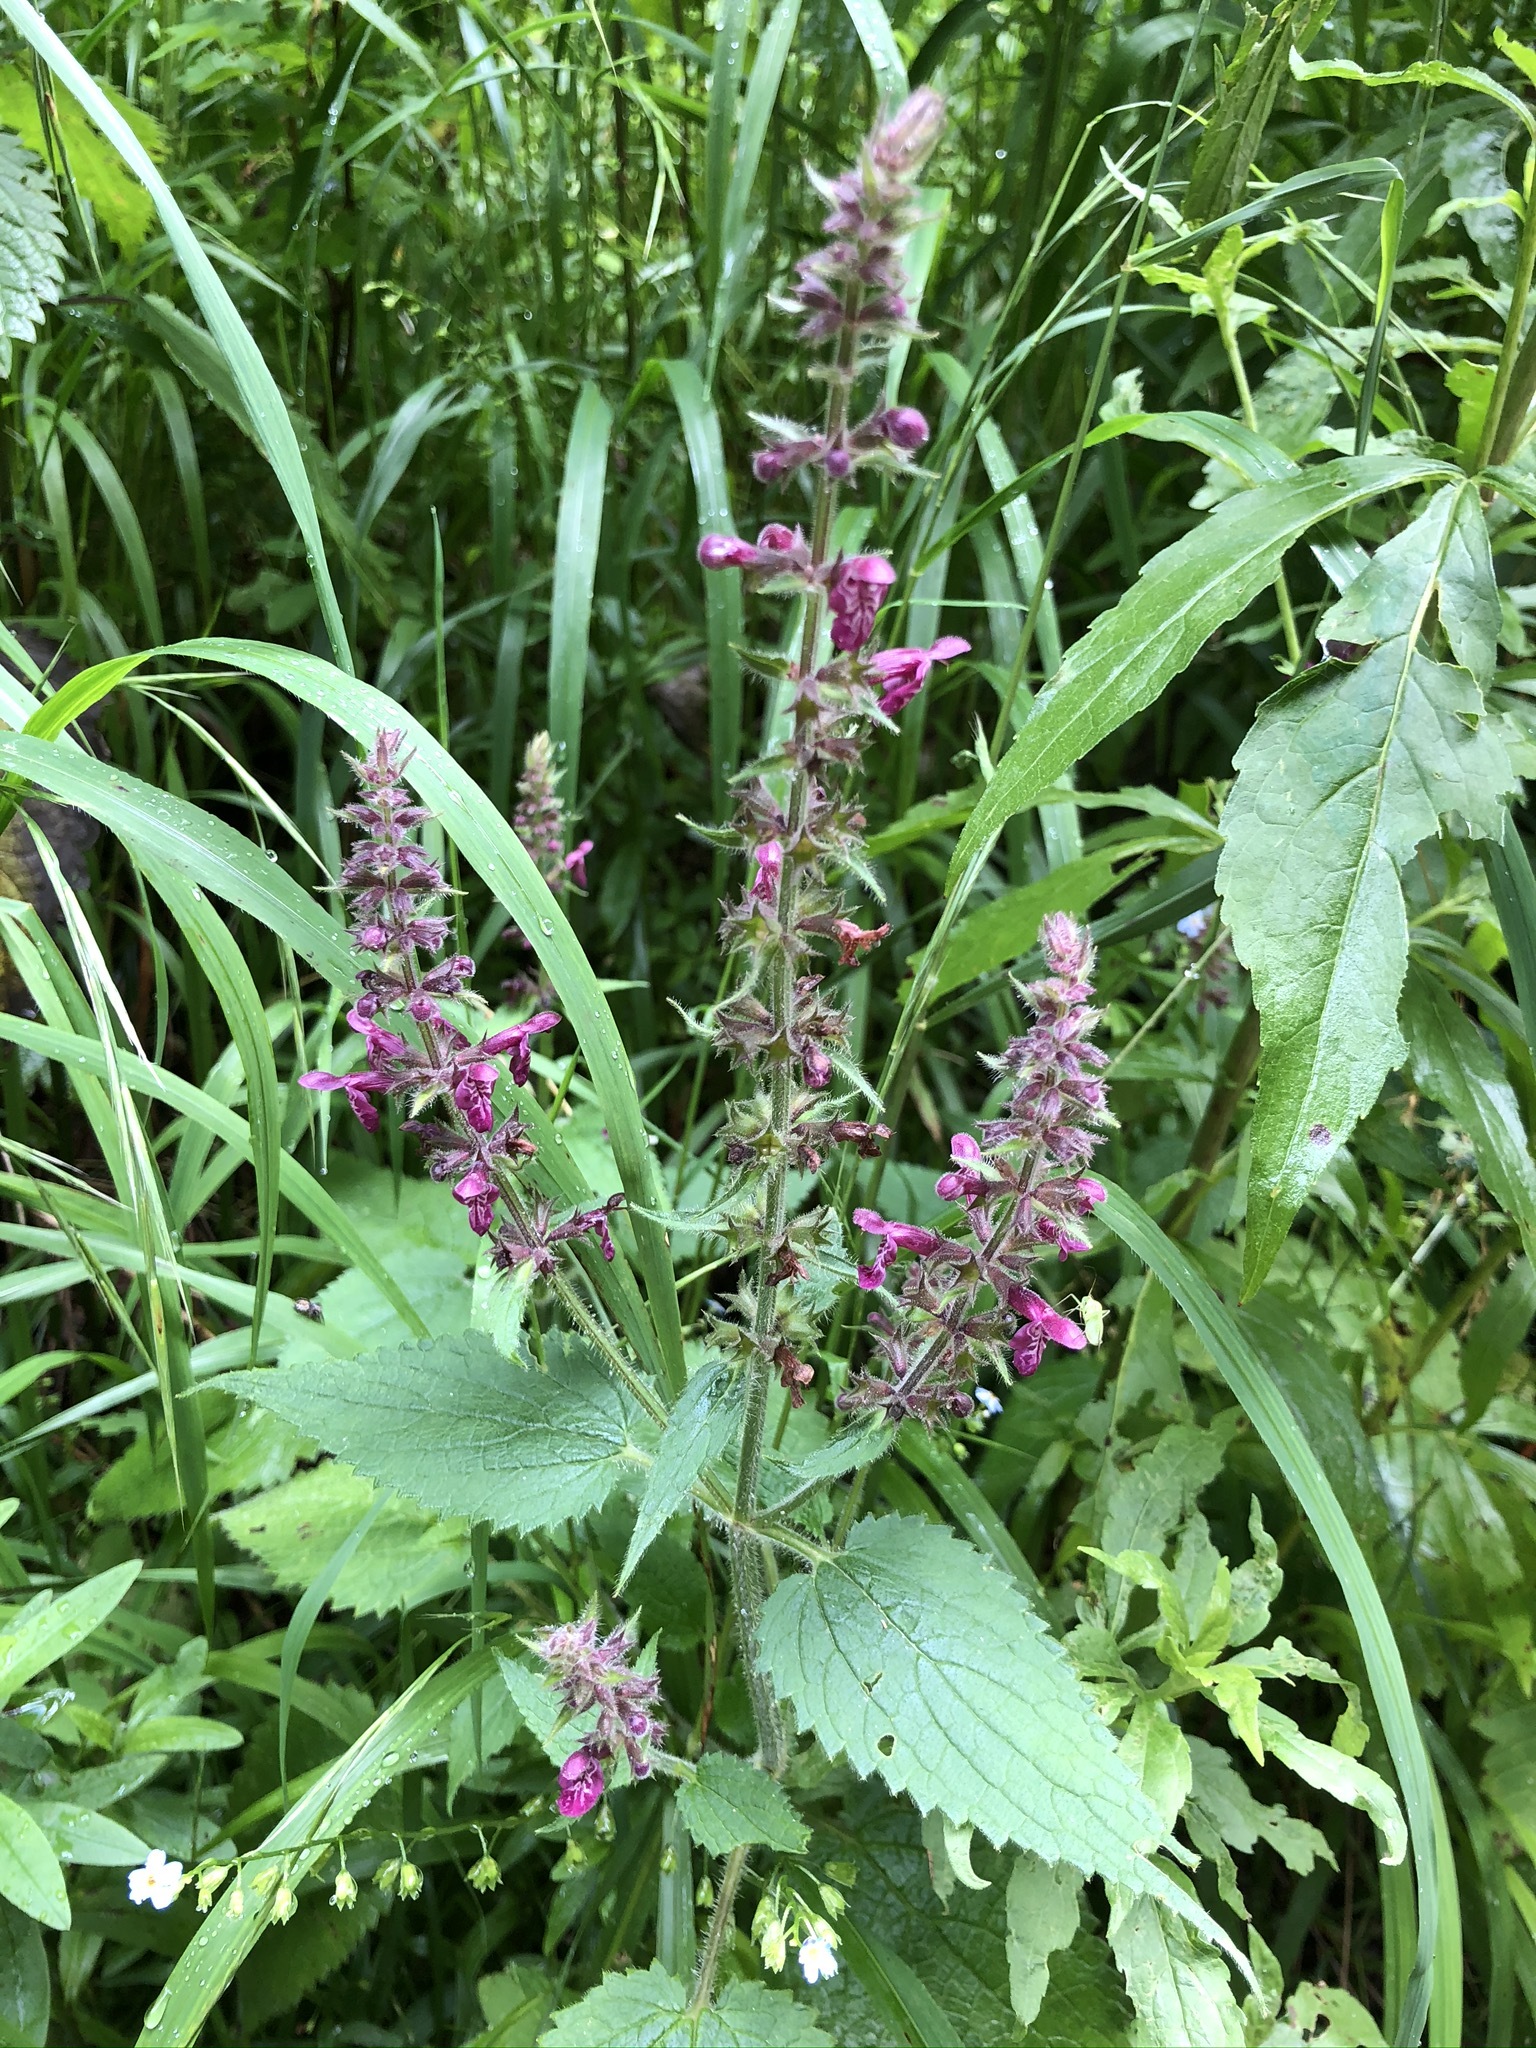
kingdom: Plantae
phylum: Tracheophyta
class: Magnoliopsida
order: Lamiales
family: Lamiaceae
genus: Stachys
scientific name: Stachys sylvatica
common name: Hedge woundwort
